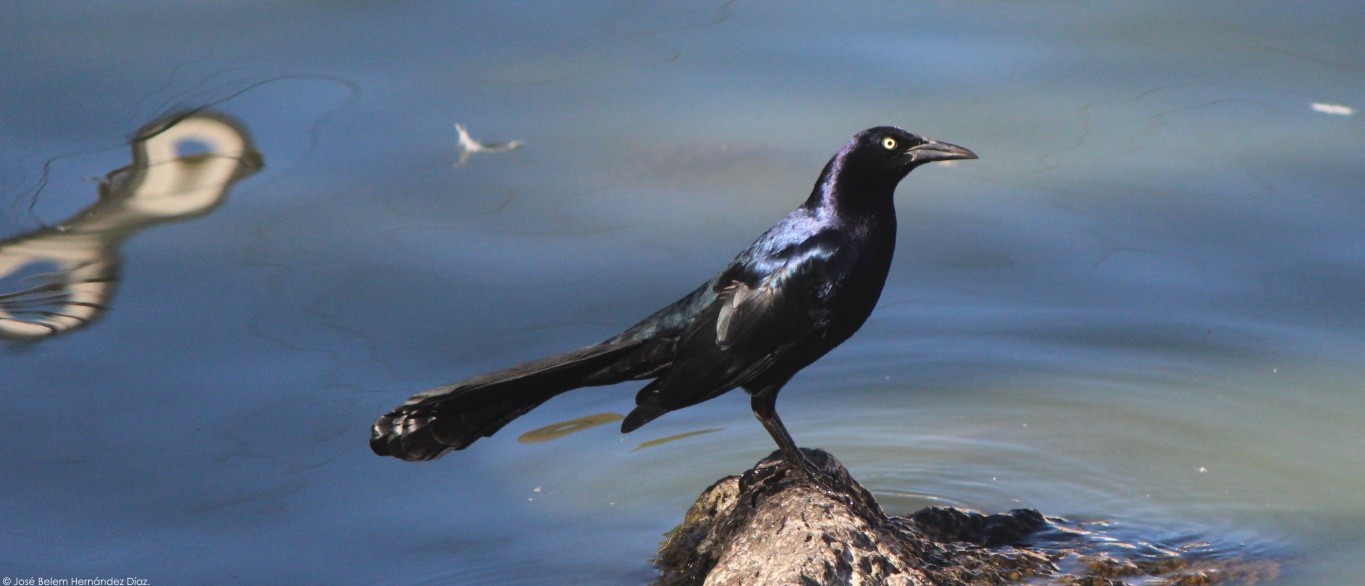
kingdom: Animalia
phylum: Chordata
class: Aves
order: Passeriformes
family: Icteridae
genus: Quiscalus
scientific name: Quiscalus mexicanus
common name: Great-tailed grackle
